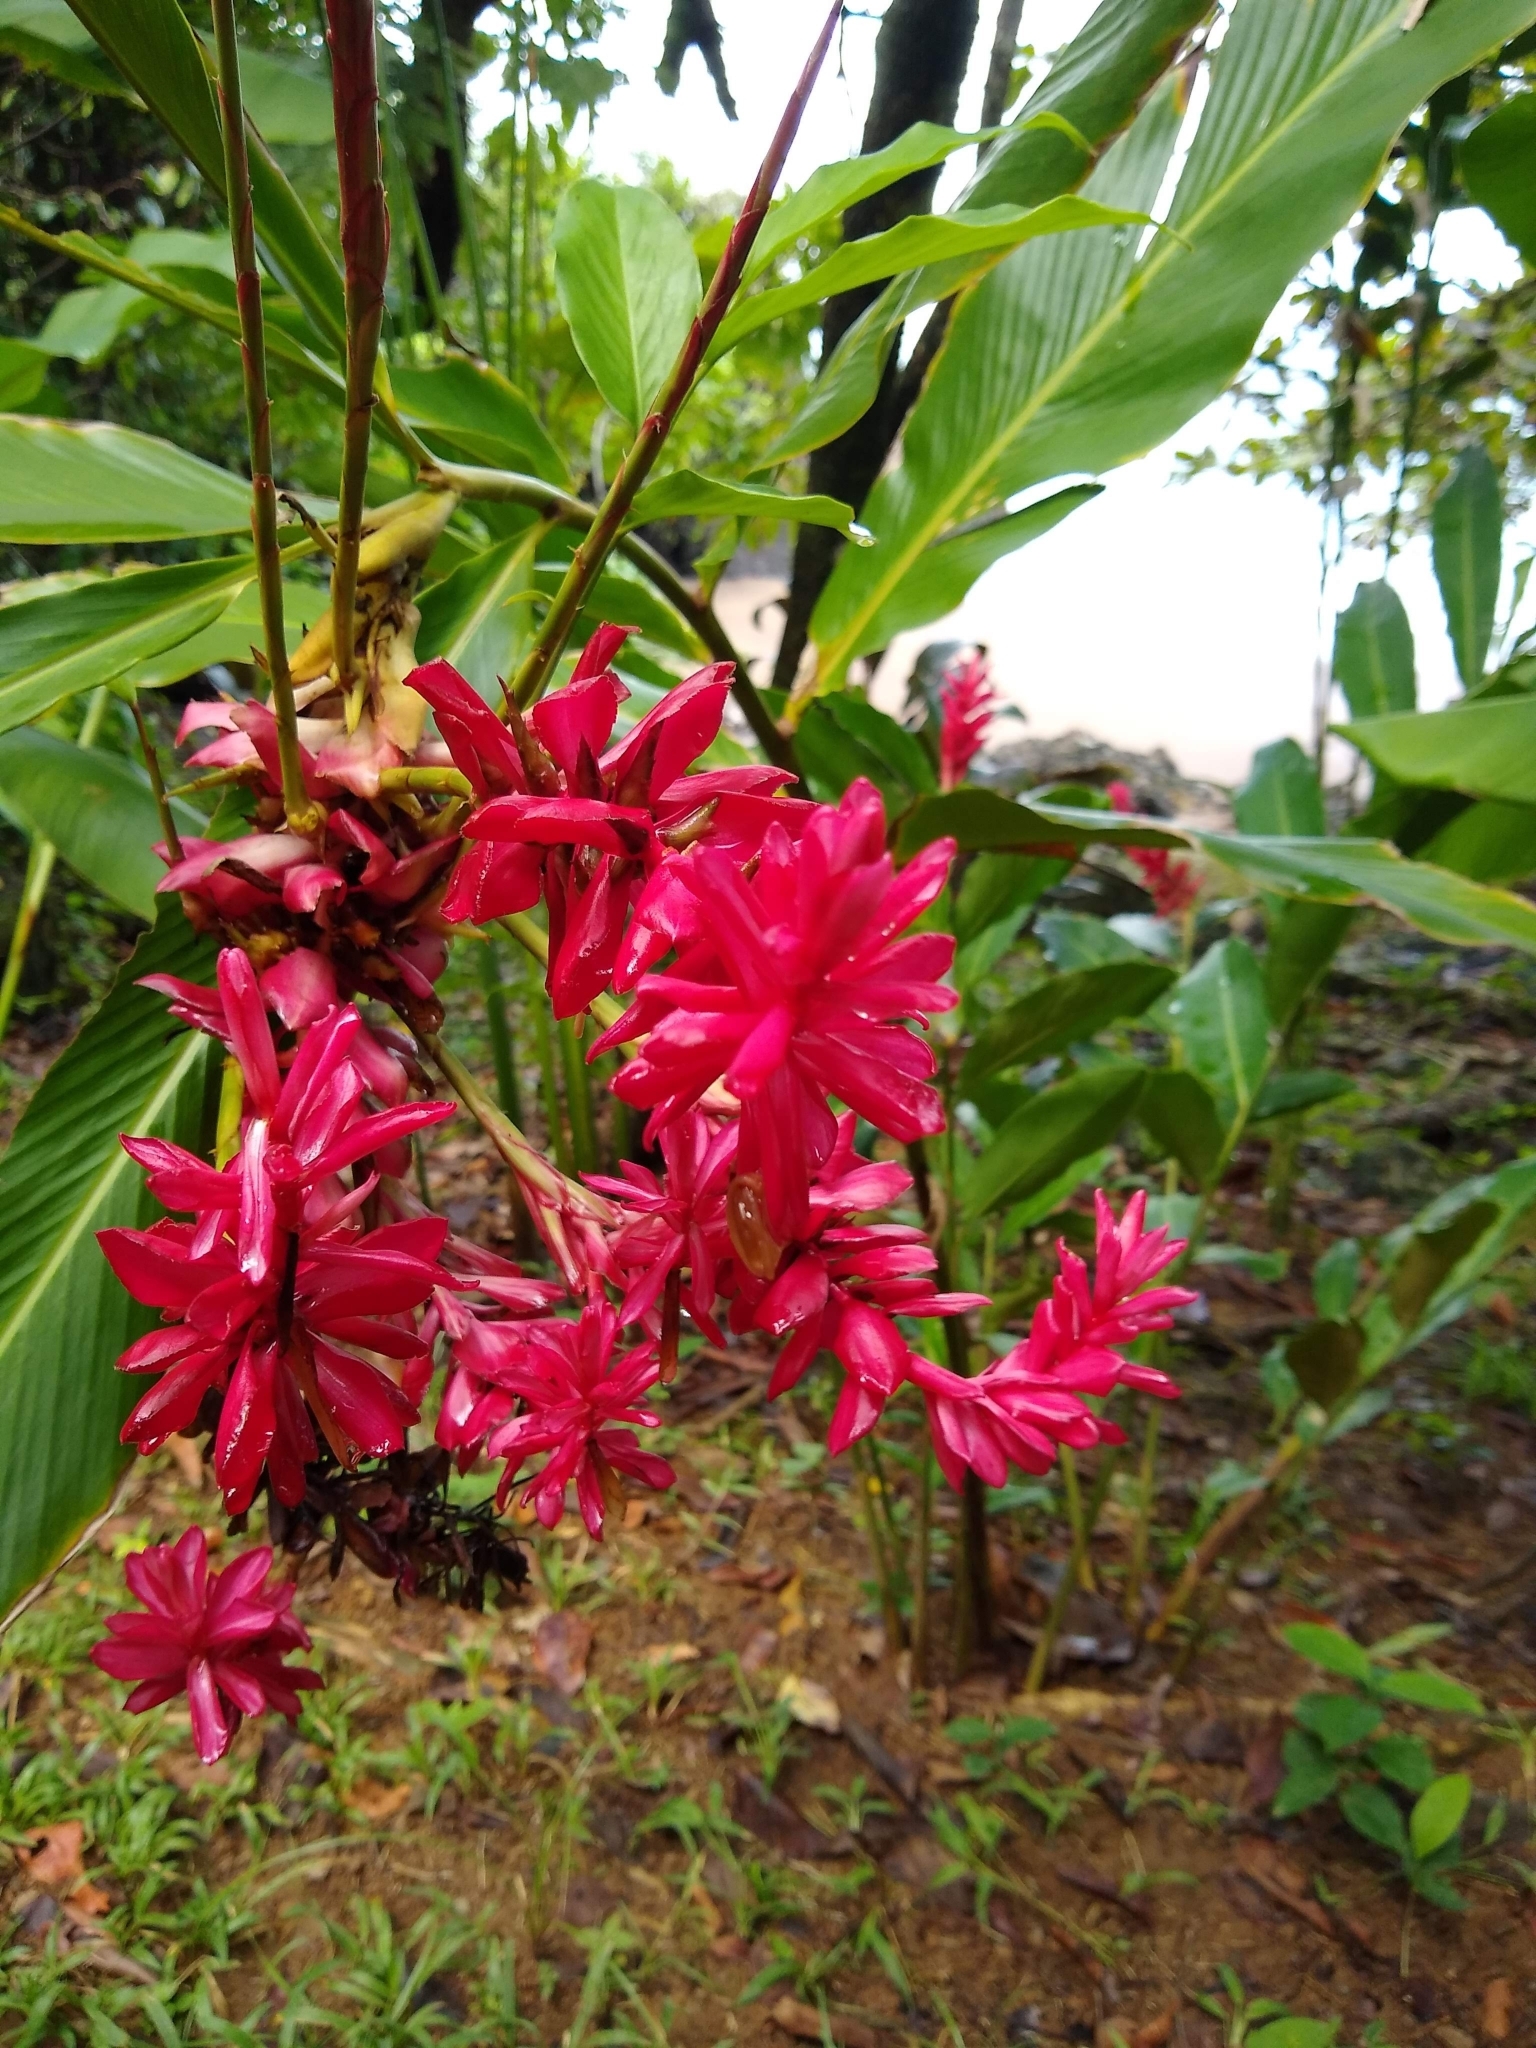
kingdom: Plantae
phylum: Tracheophyta
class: Liliopsida
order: Zingiberales
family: Zingiberaceae
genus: Alpinia
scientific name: Alpinia purpurata
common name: Red ginger
